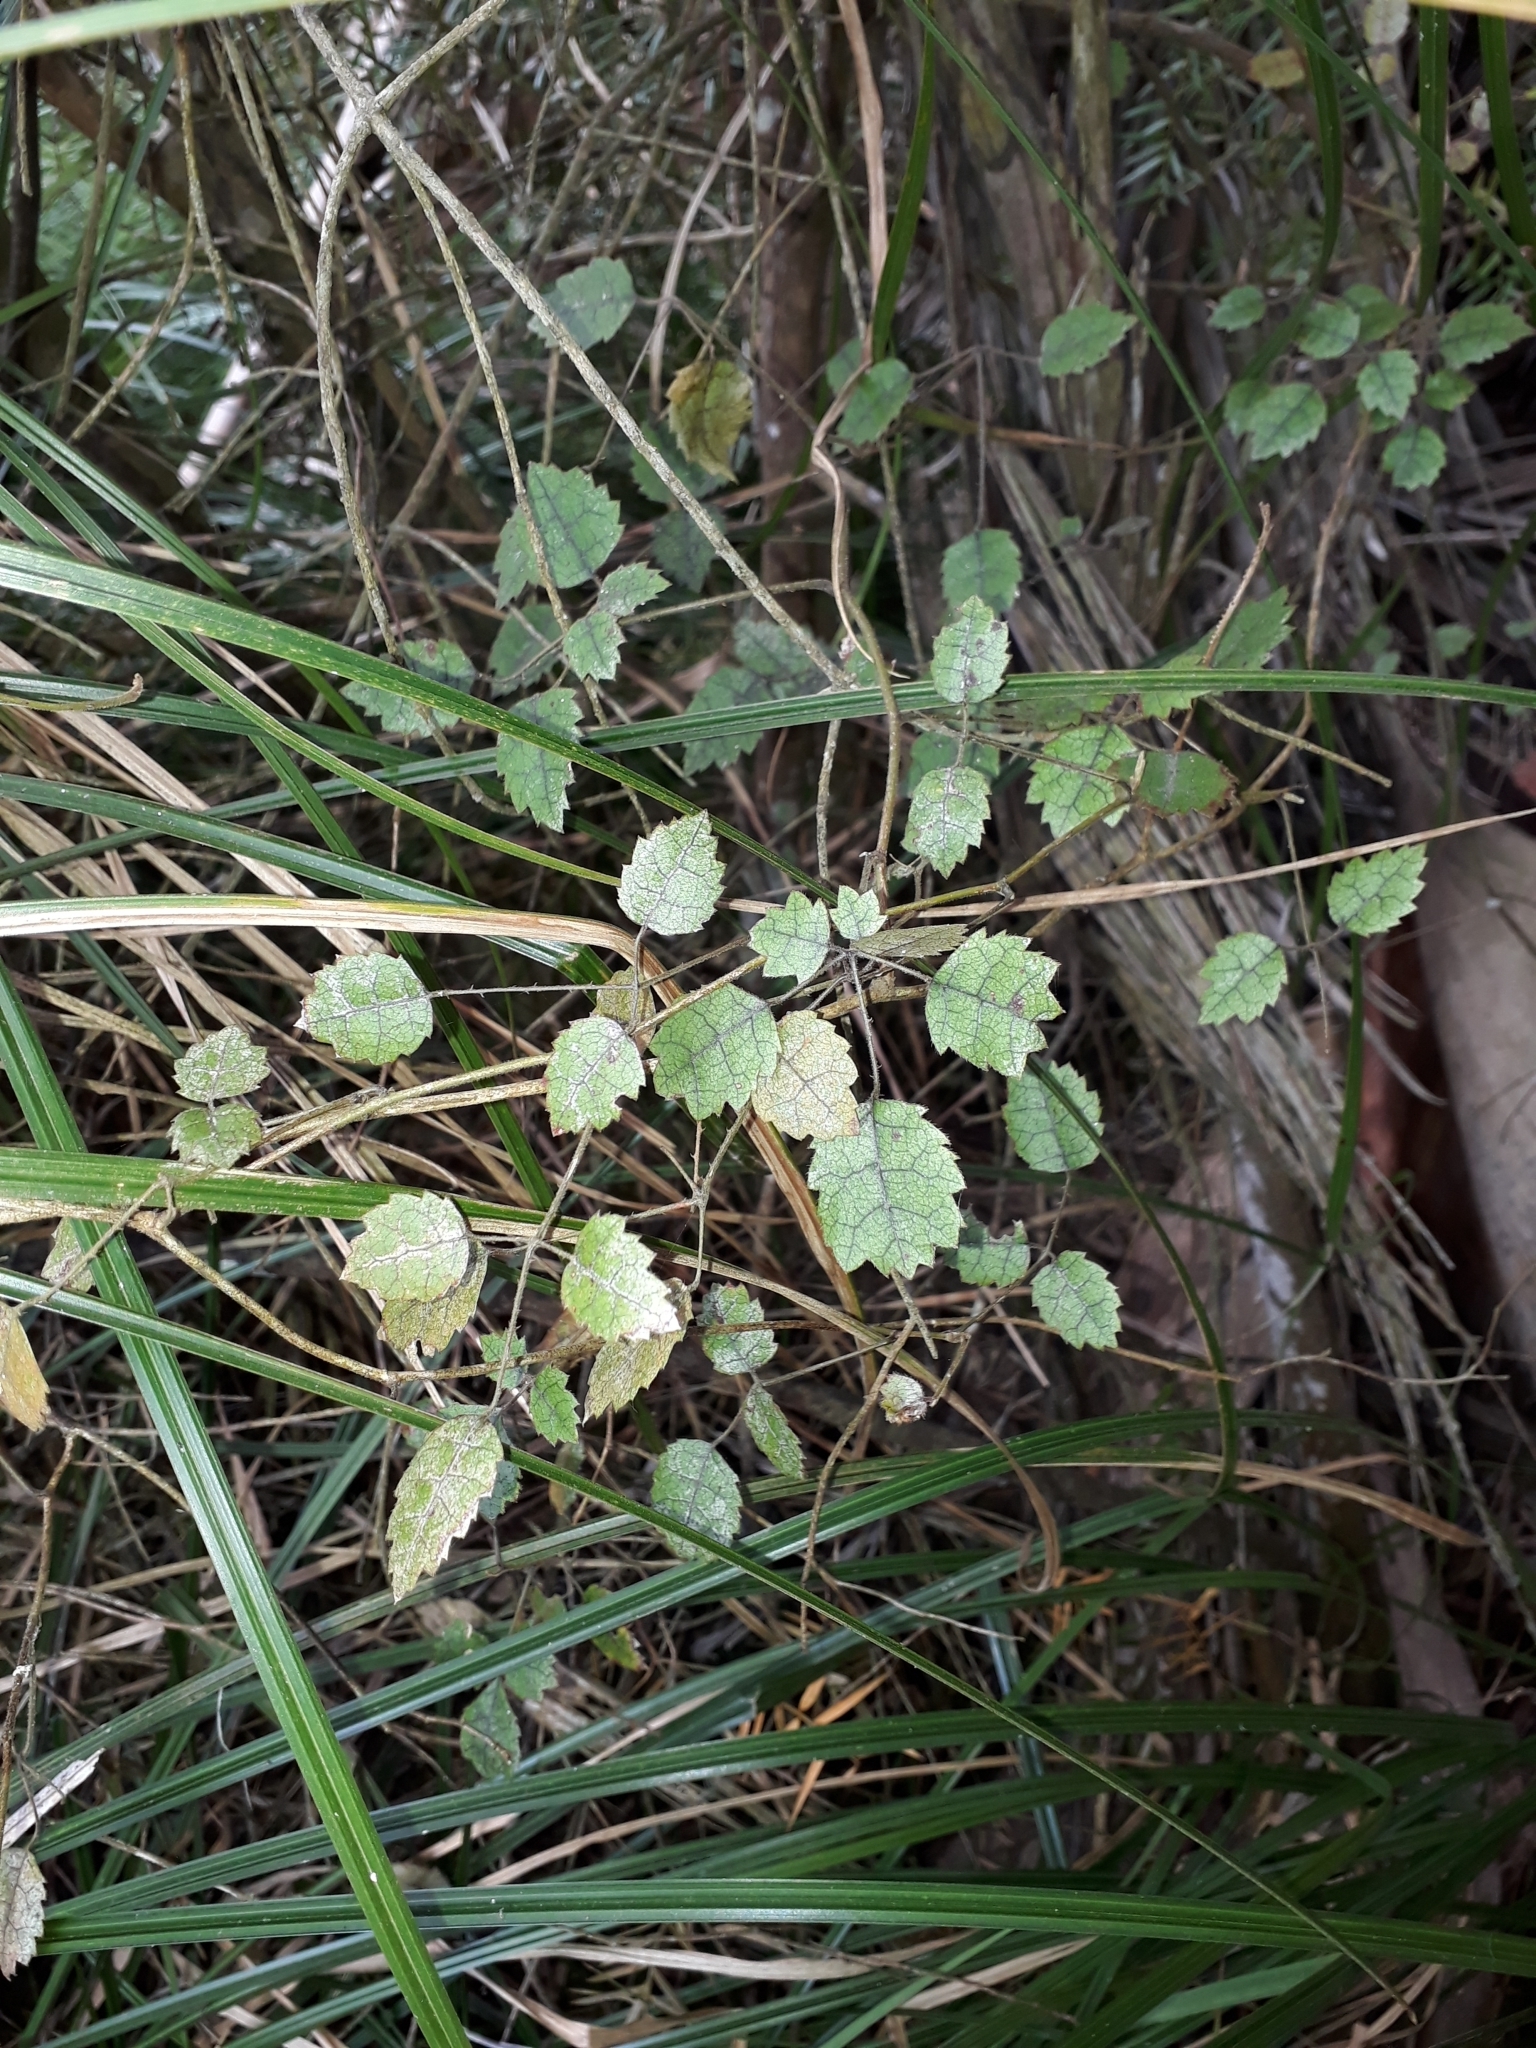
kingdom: Plantae
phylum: Tracheophyta
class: Magnoliopsida
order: Rosales
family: Rosaceae
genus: Rubus
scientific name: Rubus australis
